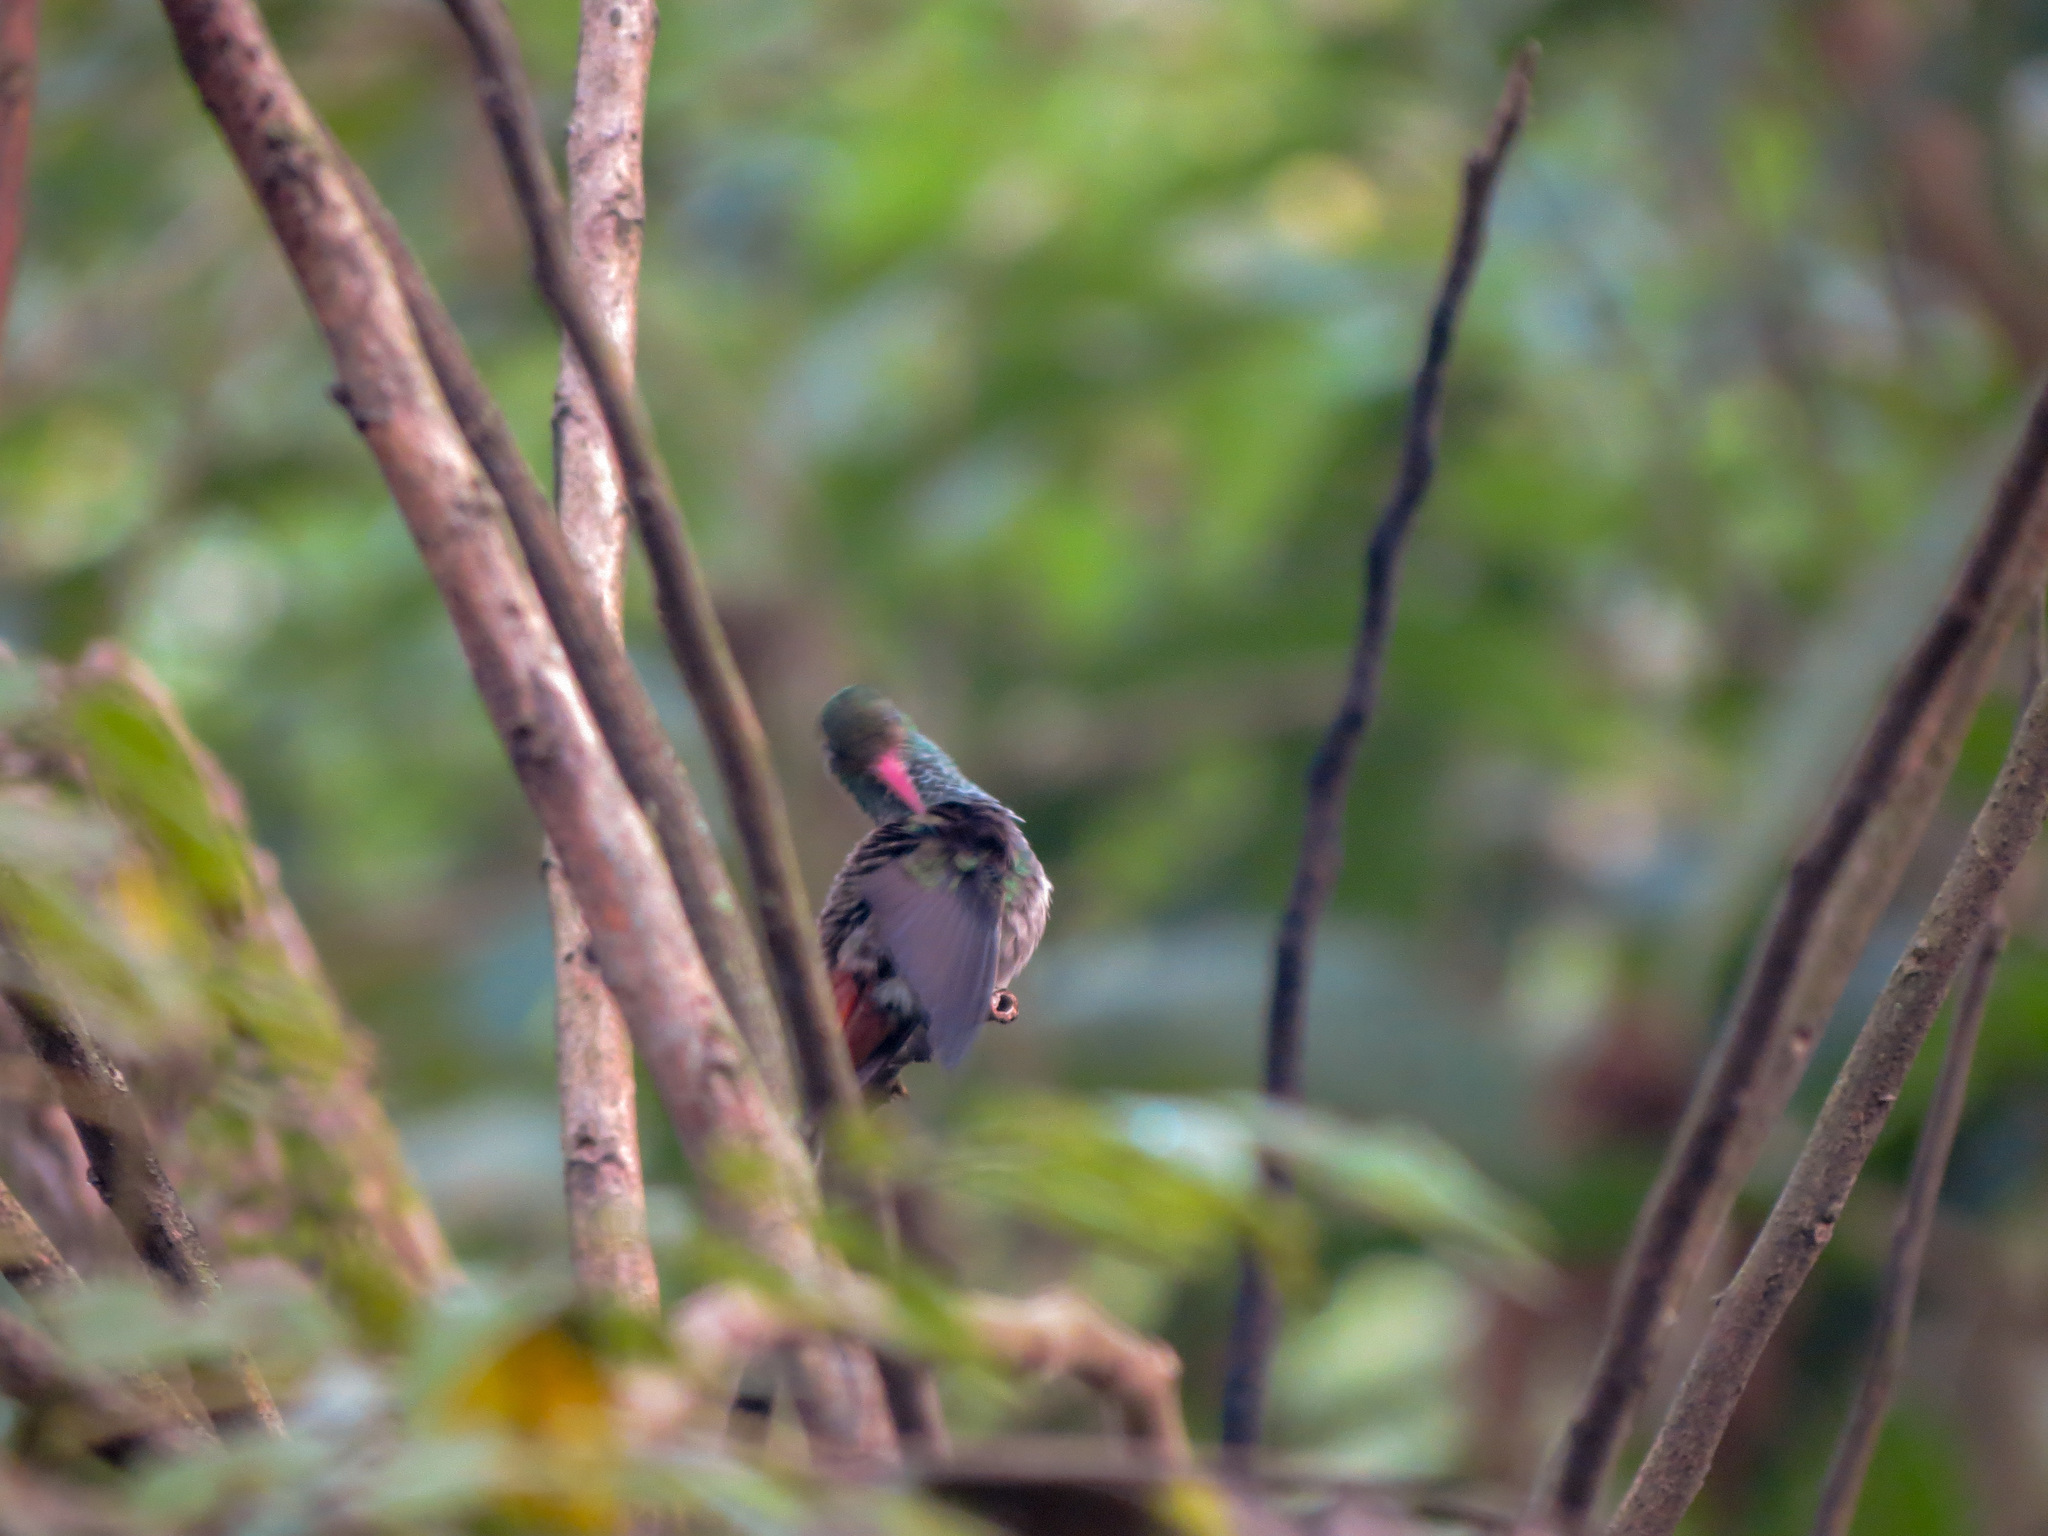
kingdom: Animalia
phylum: Chordata
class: Aves
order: Apodiformes
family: Trochilidae
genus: Amazilia
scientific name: Amazilia tzacatl
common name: Rufous-tailed hummingbird
